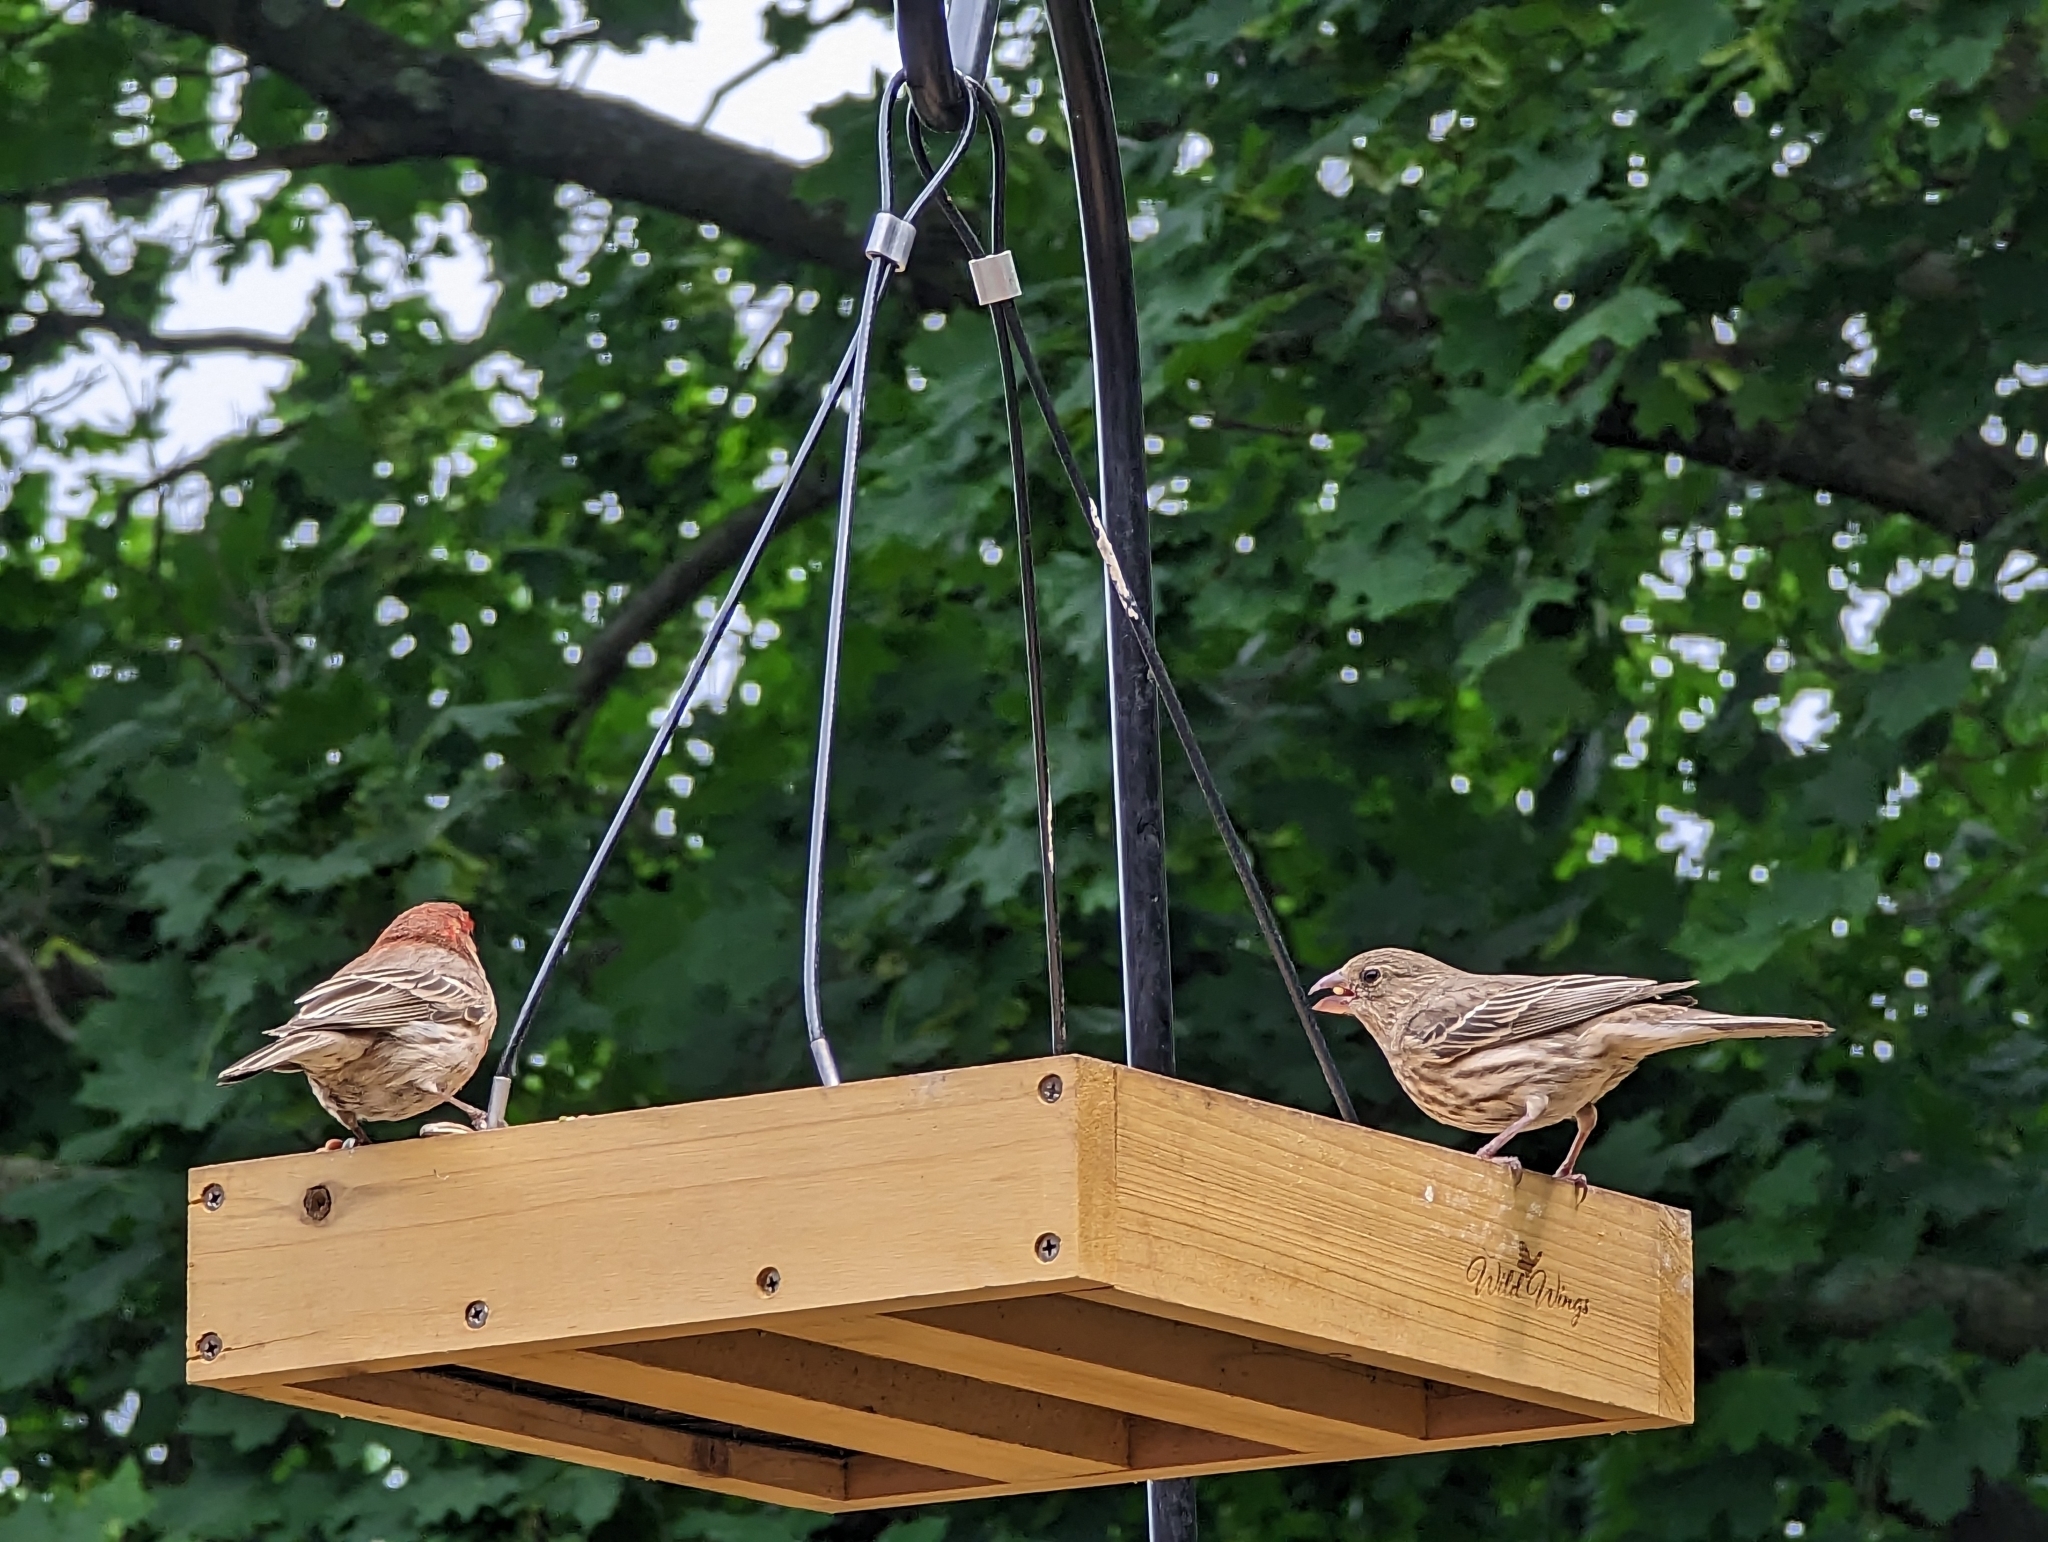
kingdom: Animalia
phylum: Chordata
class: Aves
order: Passeriformes
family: Fringillidae
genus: Haemorhous
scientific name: Haemorhous mexicanus
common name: House finch
